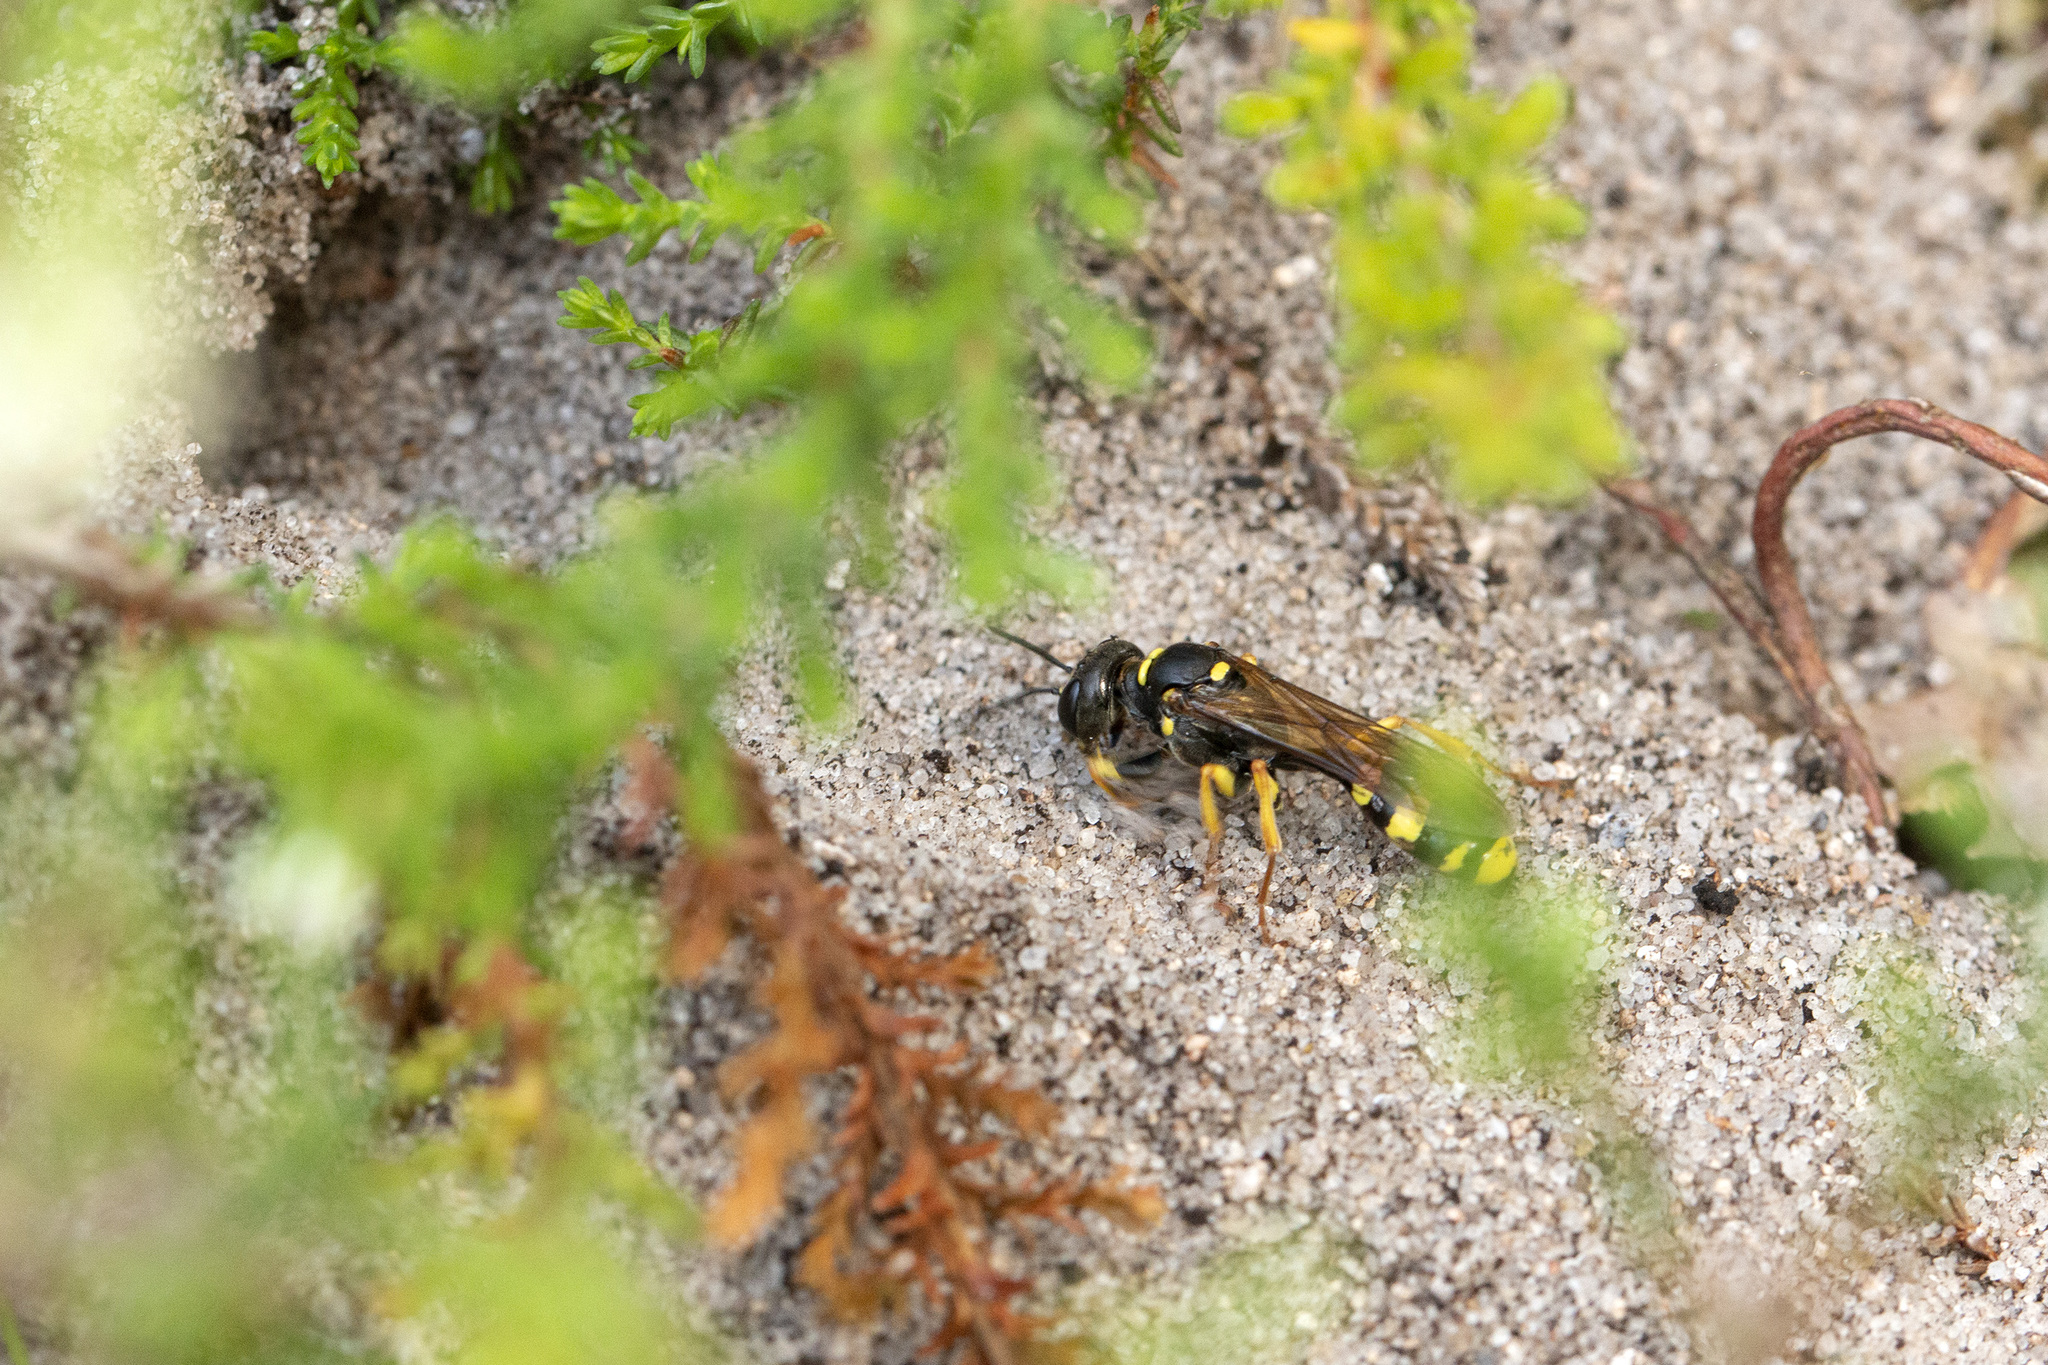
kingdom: Animalia
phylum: Arthropoda
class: Insecta
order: Hymenoptera
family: Crabronidae
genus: Mellinus
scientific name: Mellinus arvensis
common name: Field digger wasp
